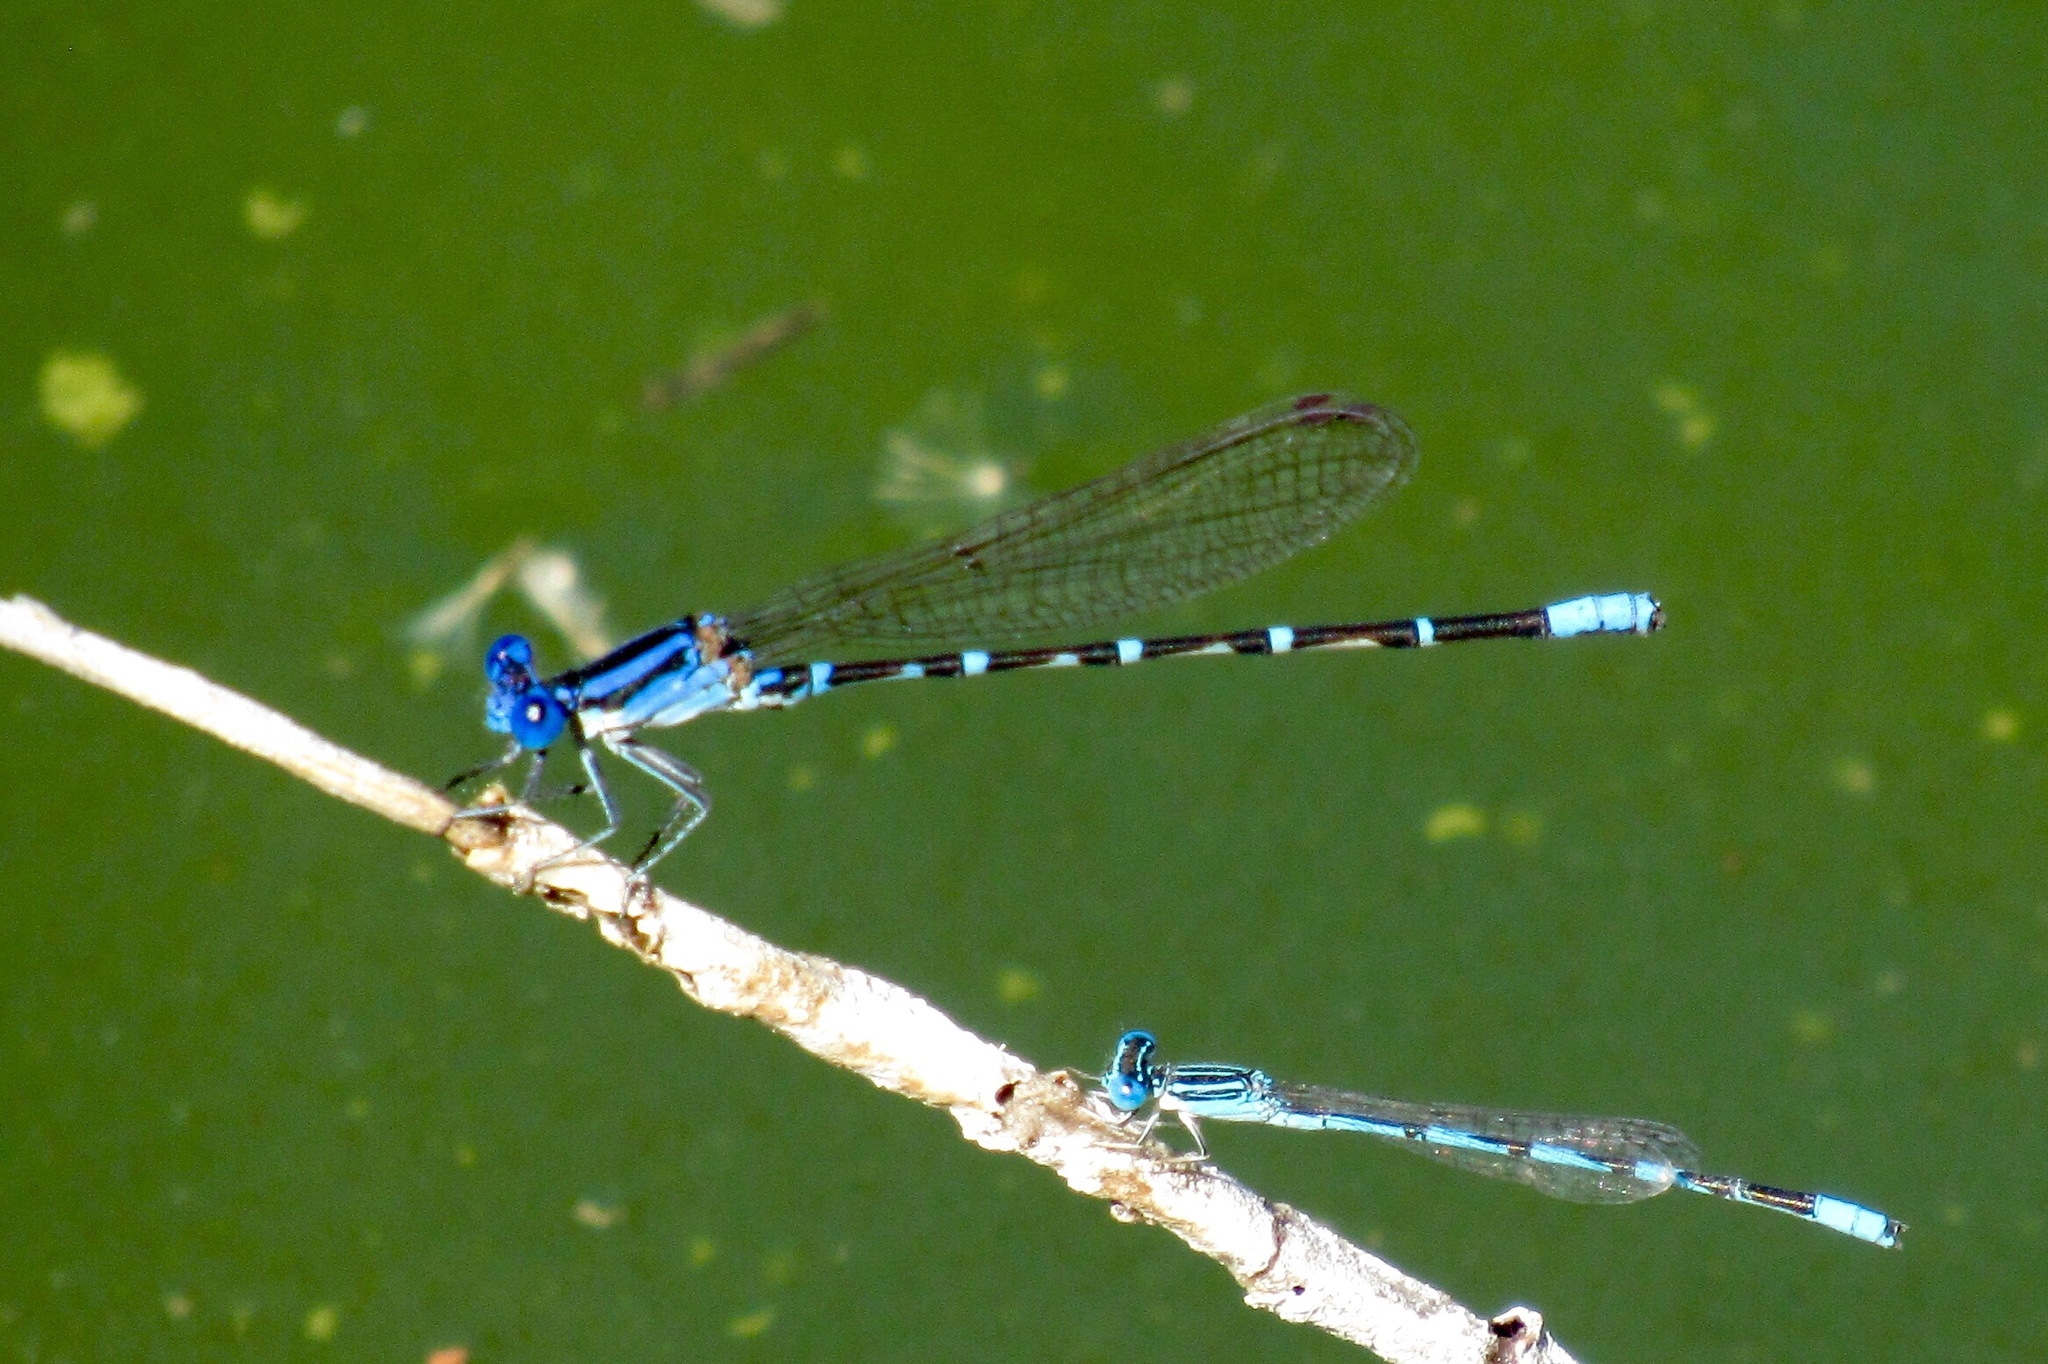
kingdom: Animalia
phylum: Arthropoda
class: Insecta
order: Odonata
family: Coenagrionidae
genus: Argia
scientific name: Argia sedula
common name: Blue-ringed dancer
